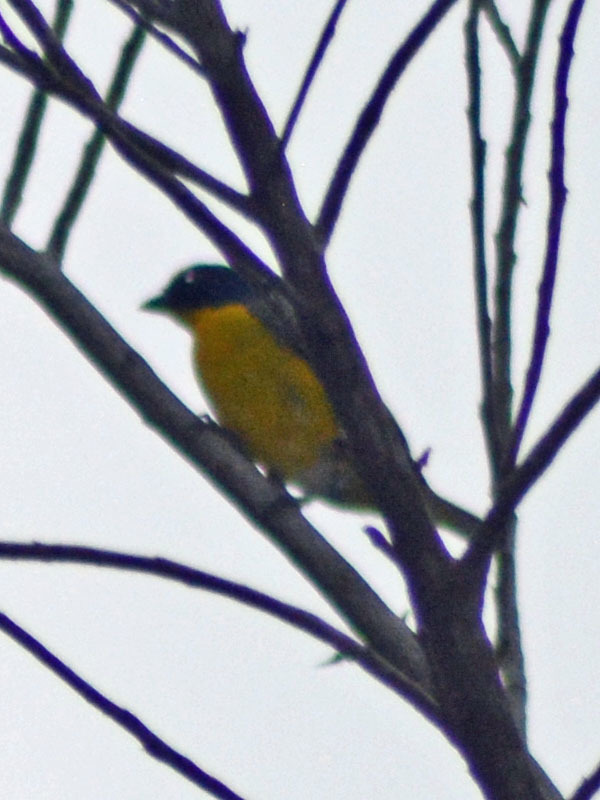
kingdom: Animalia
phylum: Chordata
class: Aves
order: Passeriformes
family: Fringillidae
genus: Euphonia
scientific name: Euphonia hirundinacea
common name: Yellow-throated euphonia
